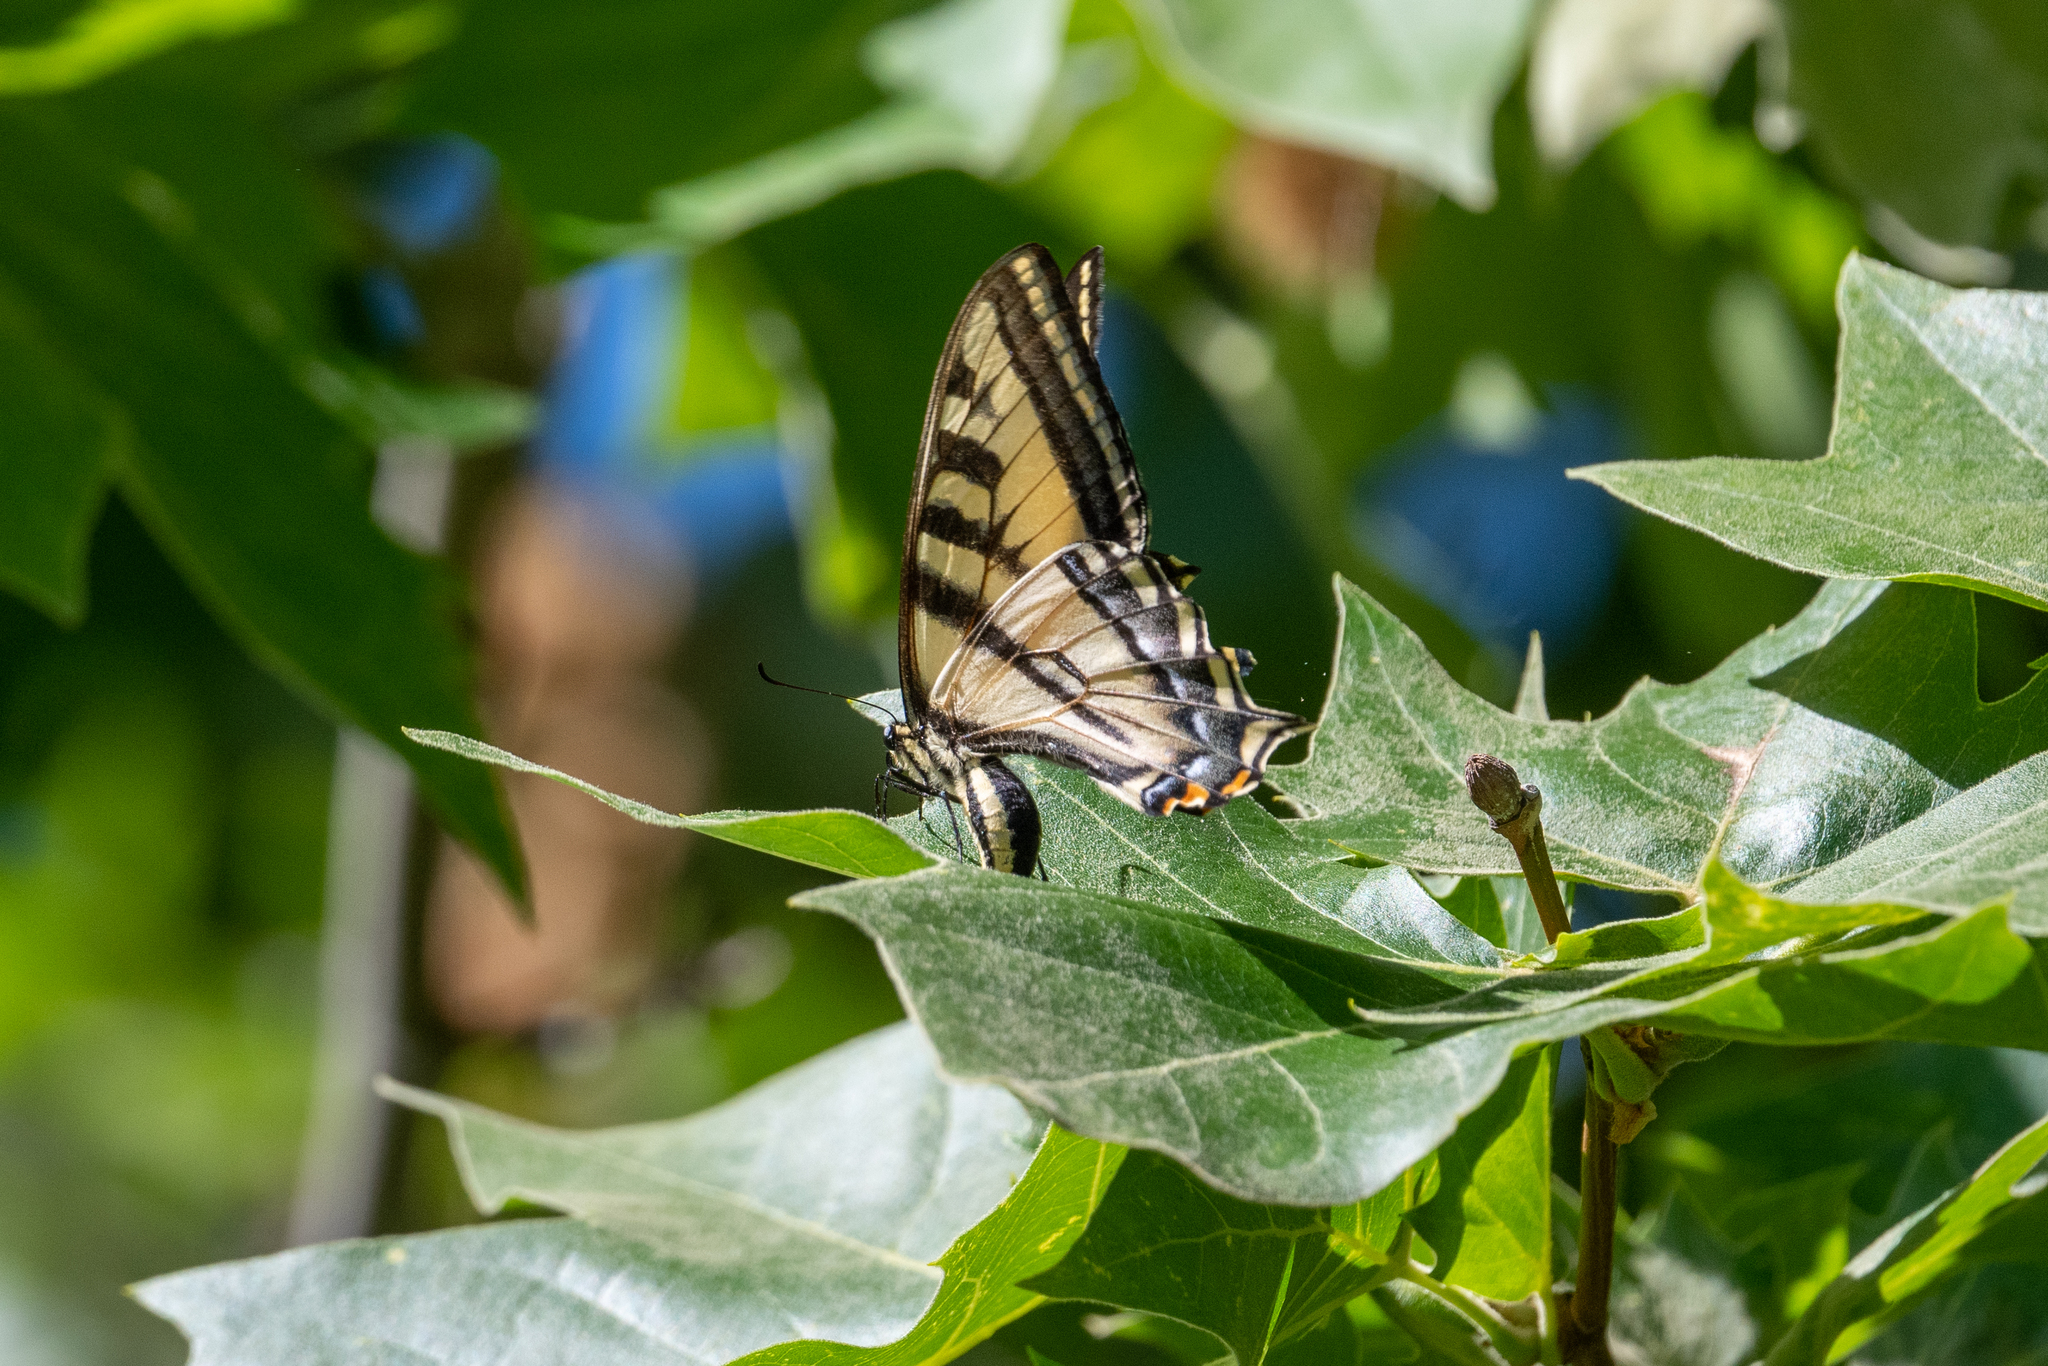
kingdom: Animalia
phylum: Arthropoda
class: Insecta
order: Lepidoptera
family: Papilionidae
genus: Papilio
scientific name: Papilio rutulus
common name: Western tiger swallowtail
